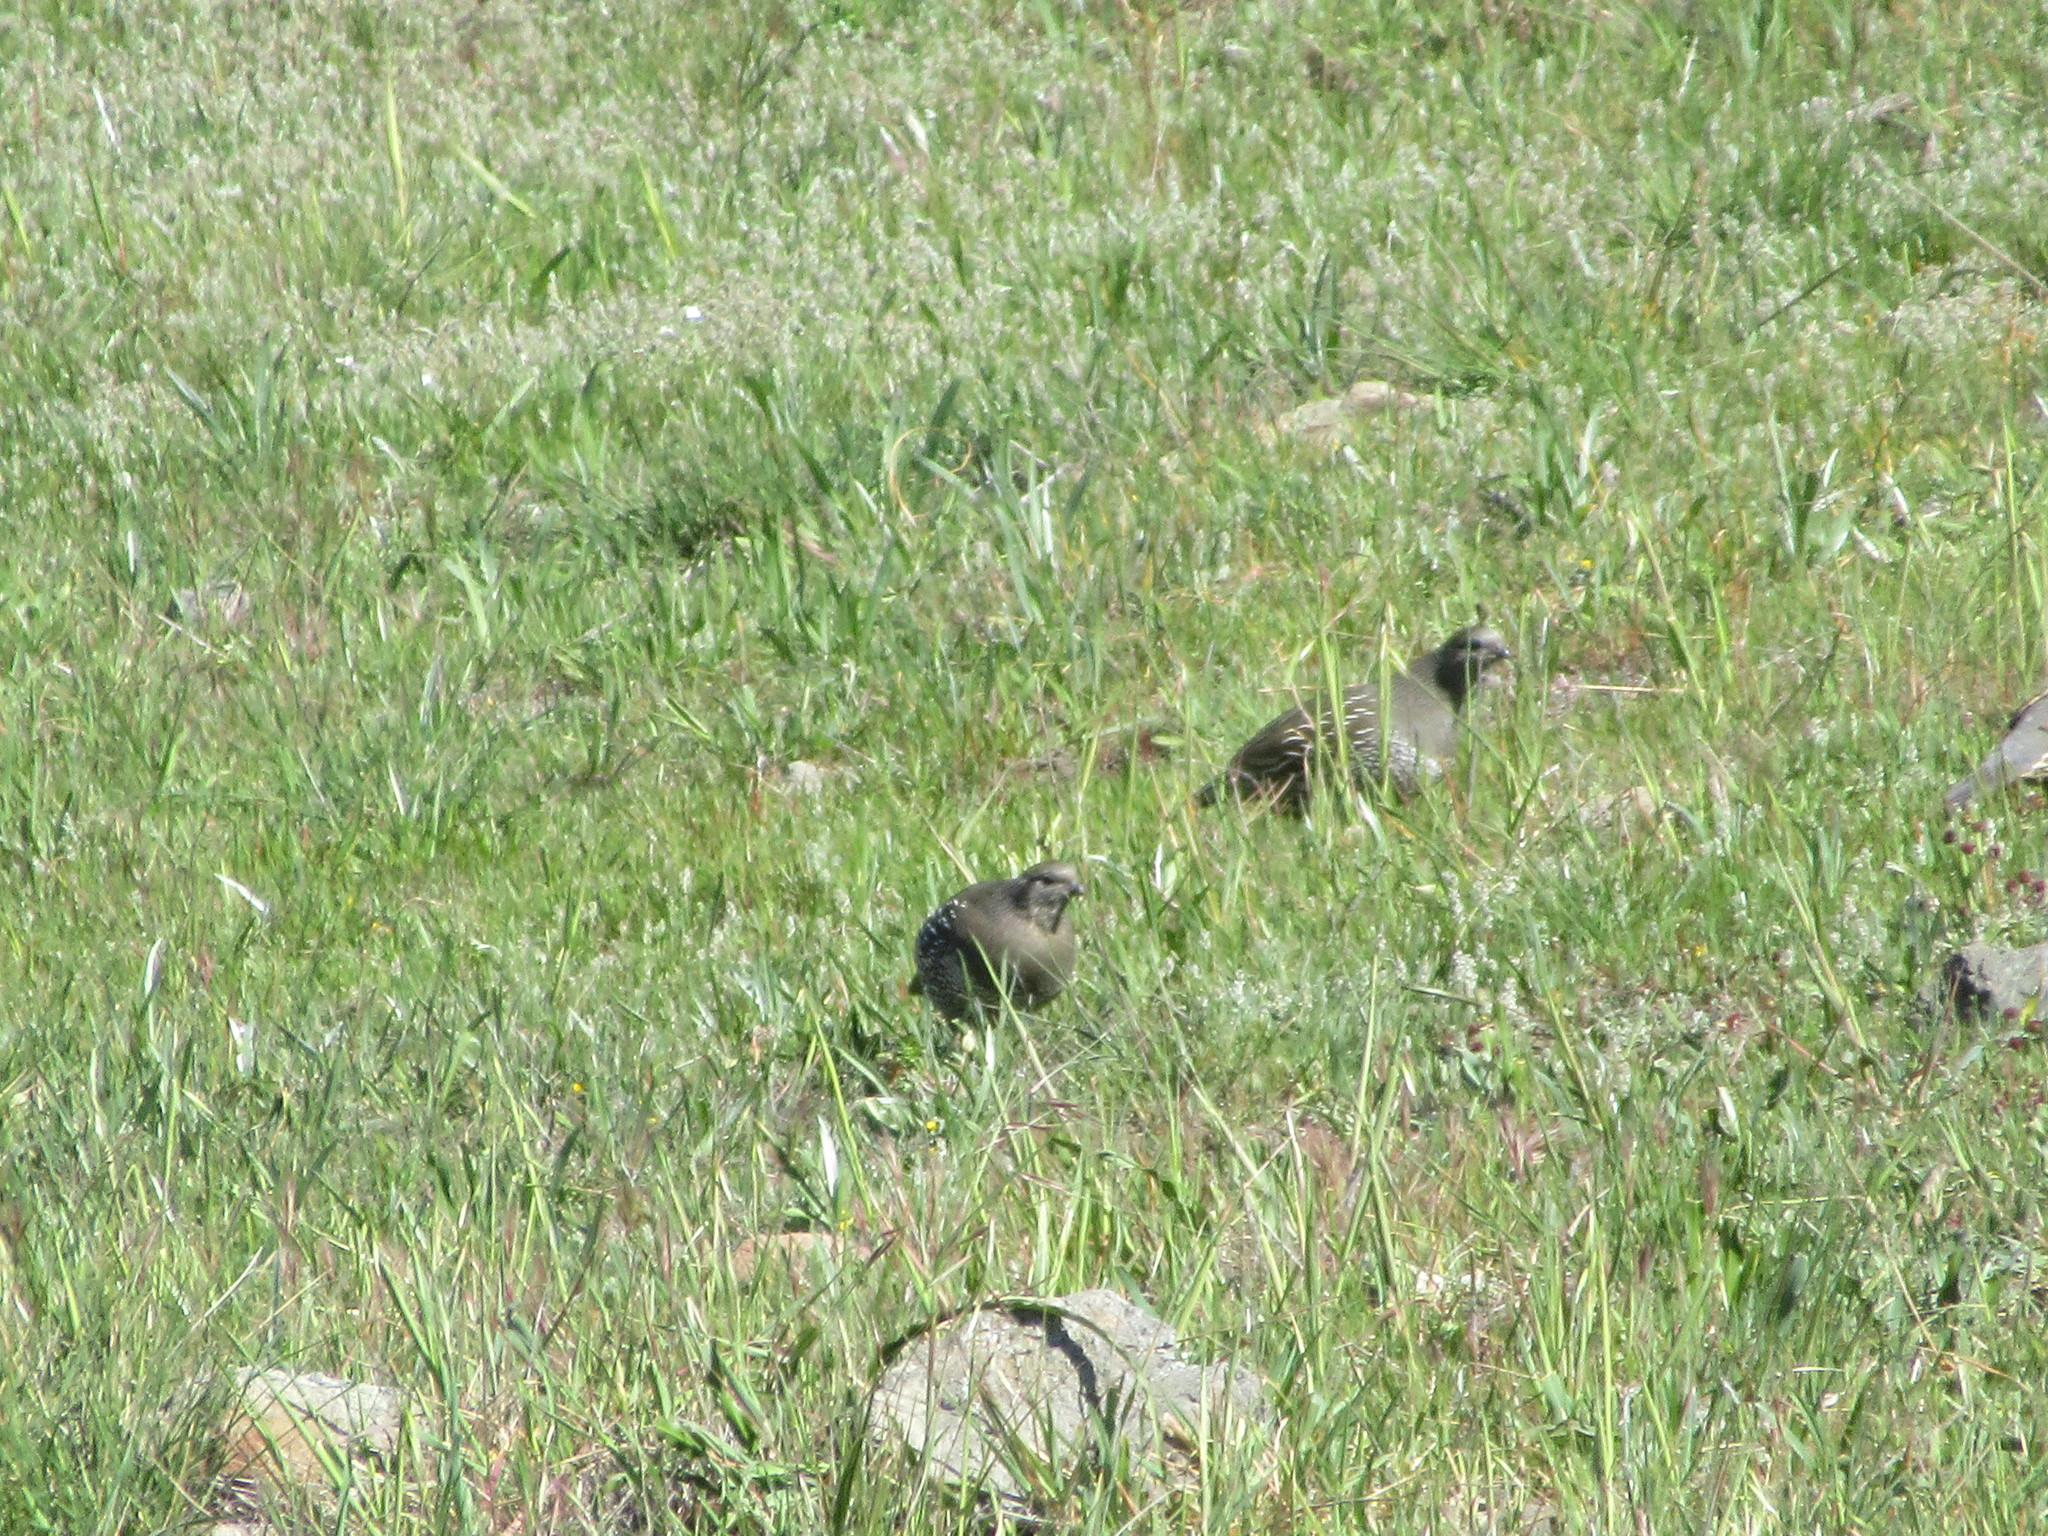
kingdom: Animalia
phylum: Chordata
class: Aves
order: Galliformes
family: Odontophoridae
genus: Callipepla
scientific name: Callipepla californica
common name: California quail
